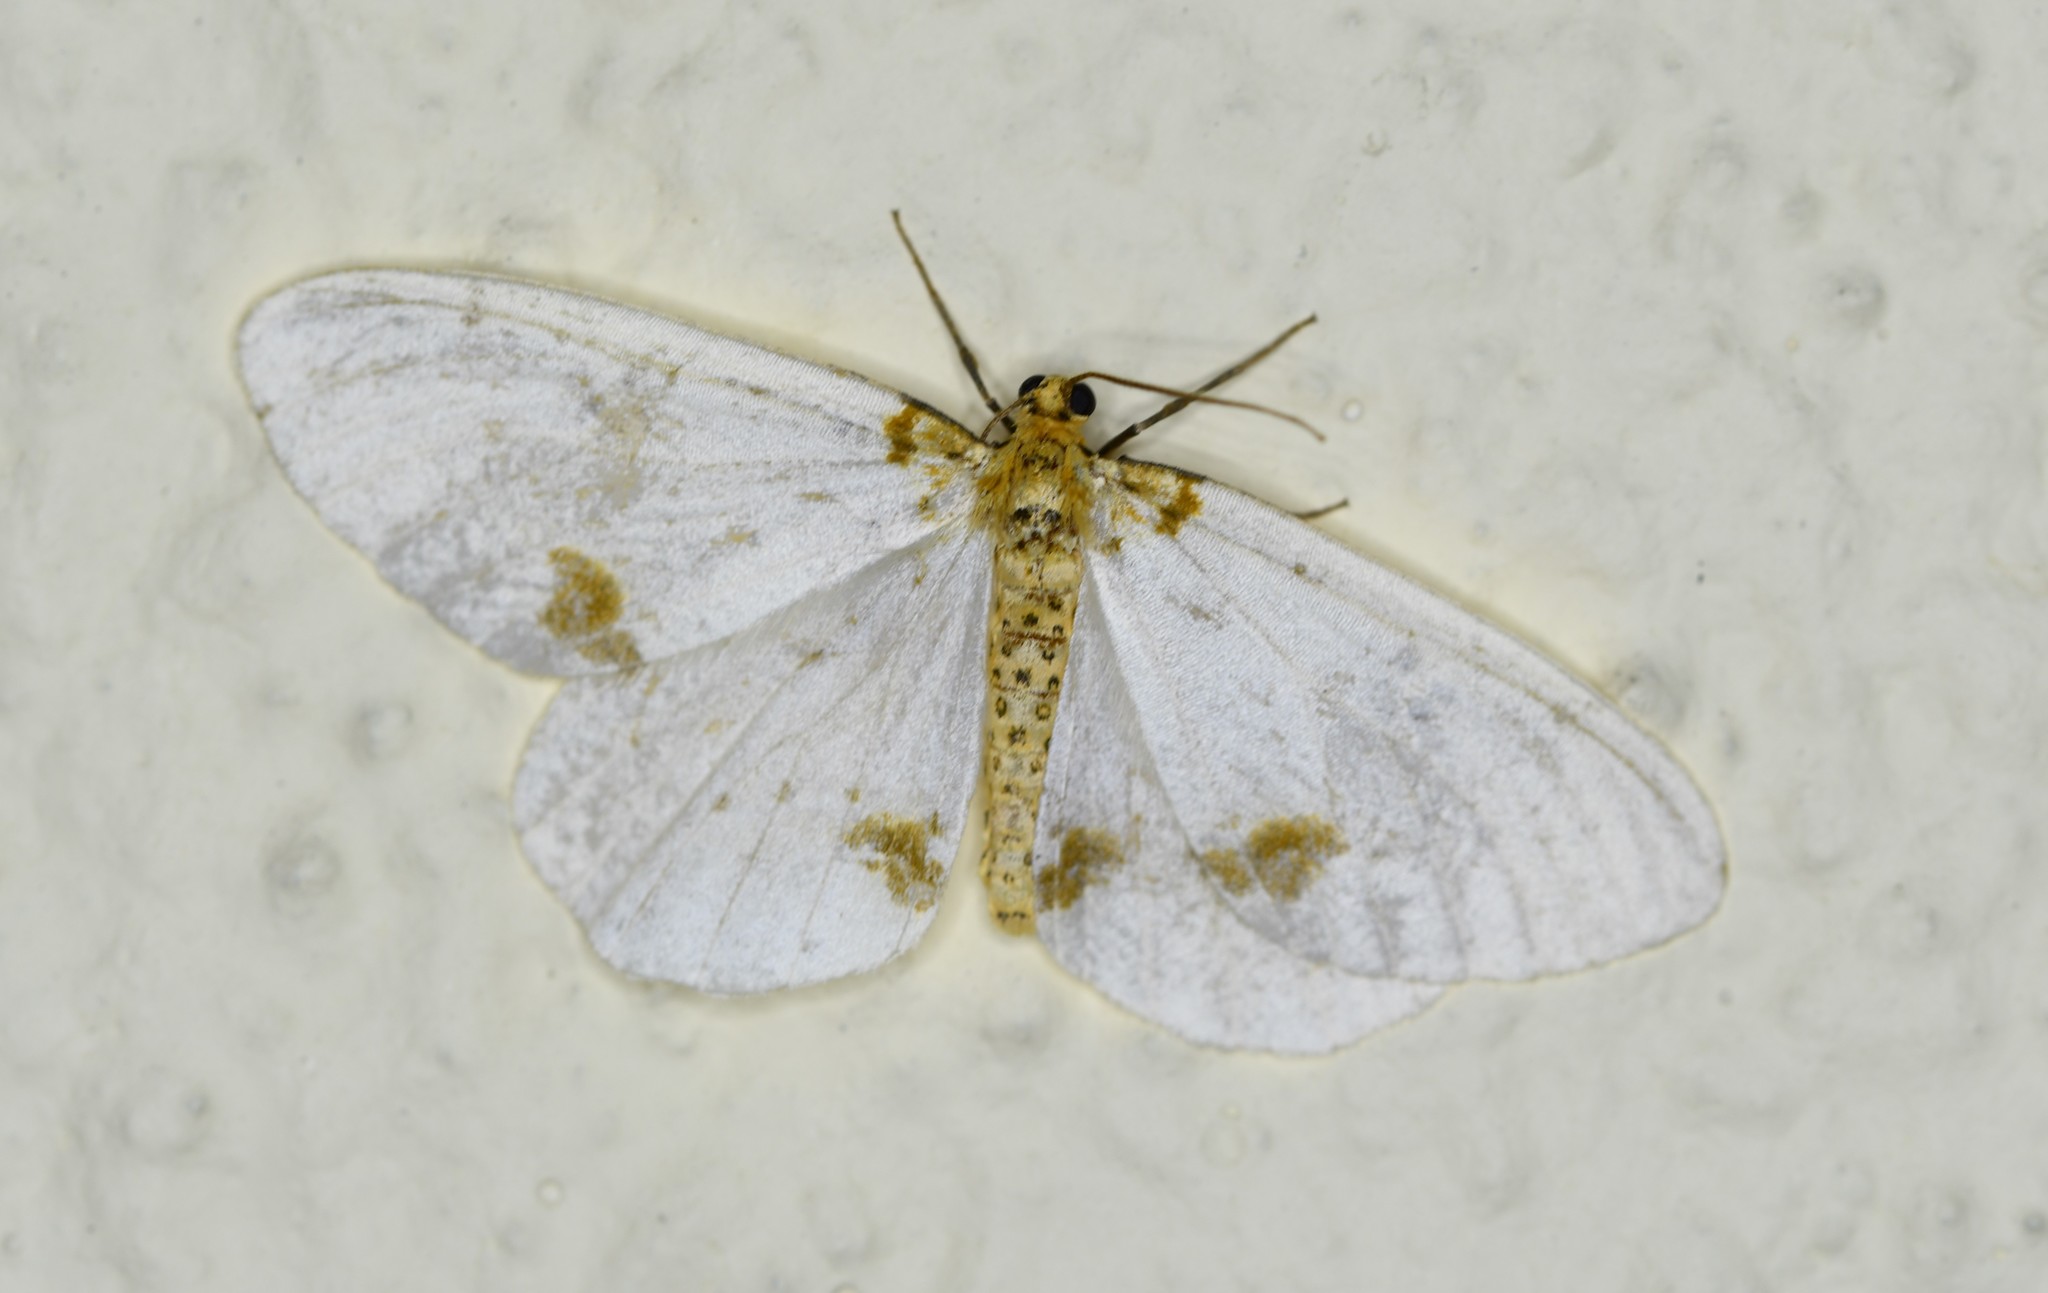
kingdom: Animalia
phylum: Arthropoda
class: Insecta
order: Lepidoptera
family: Geometridae
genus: Abraxas
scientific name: Abraxas pantaria
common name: Light magpie
